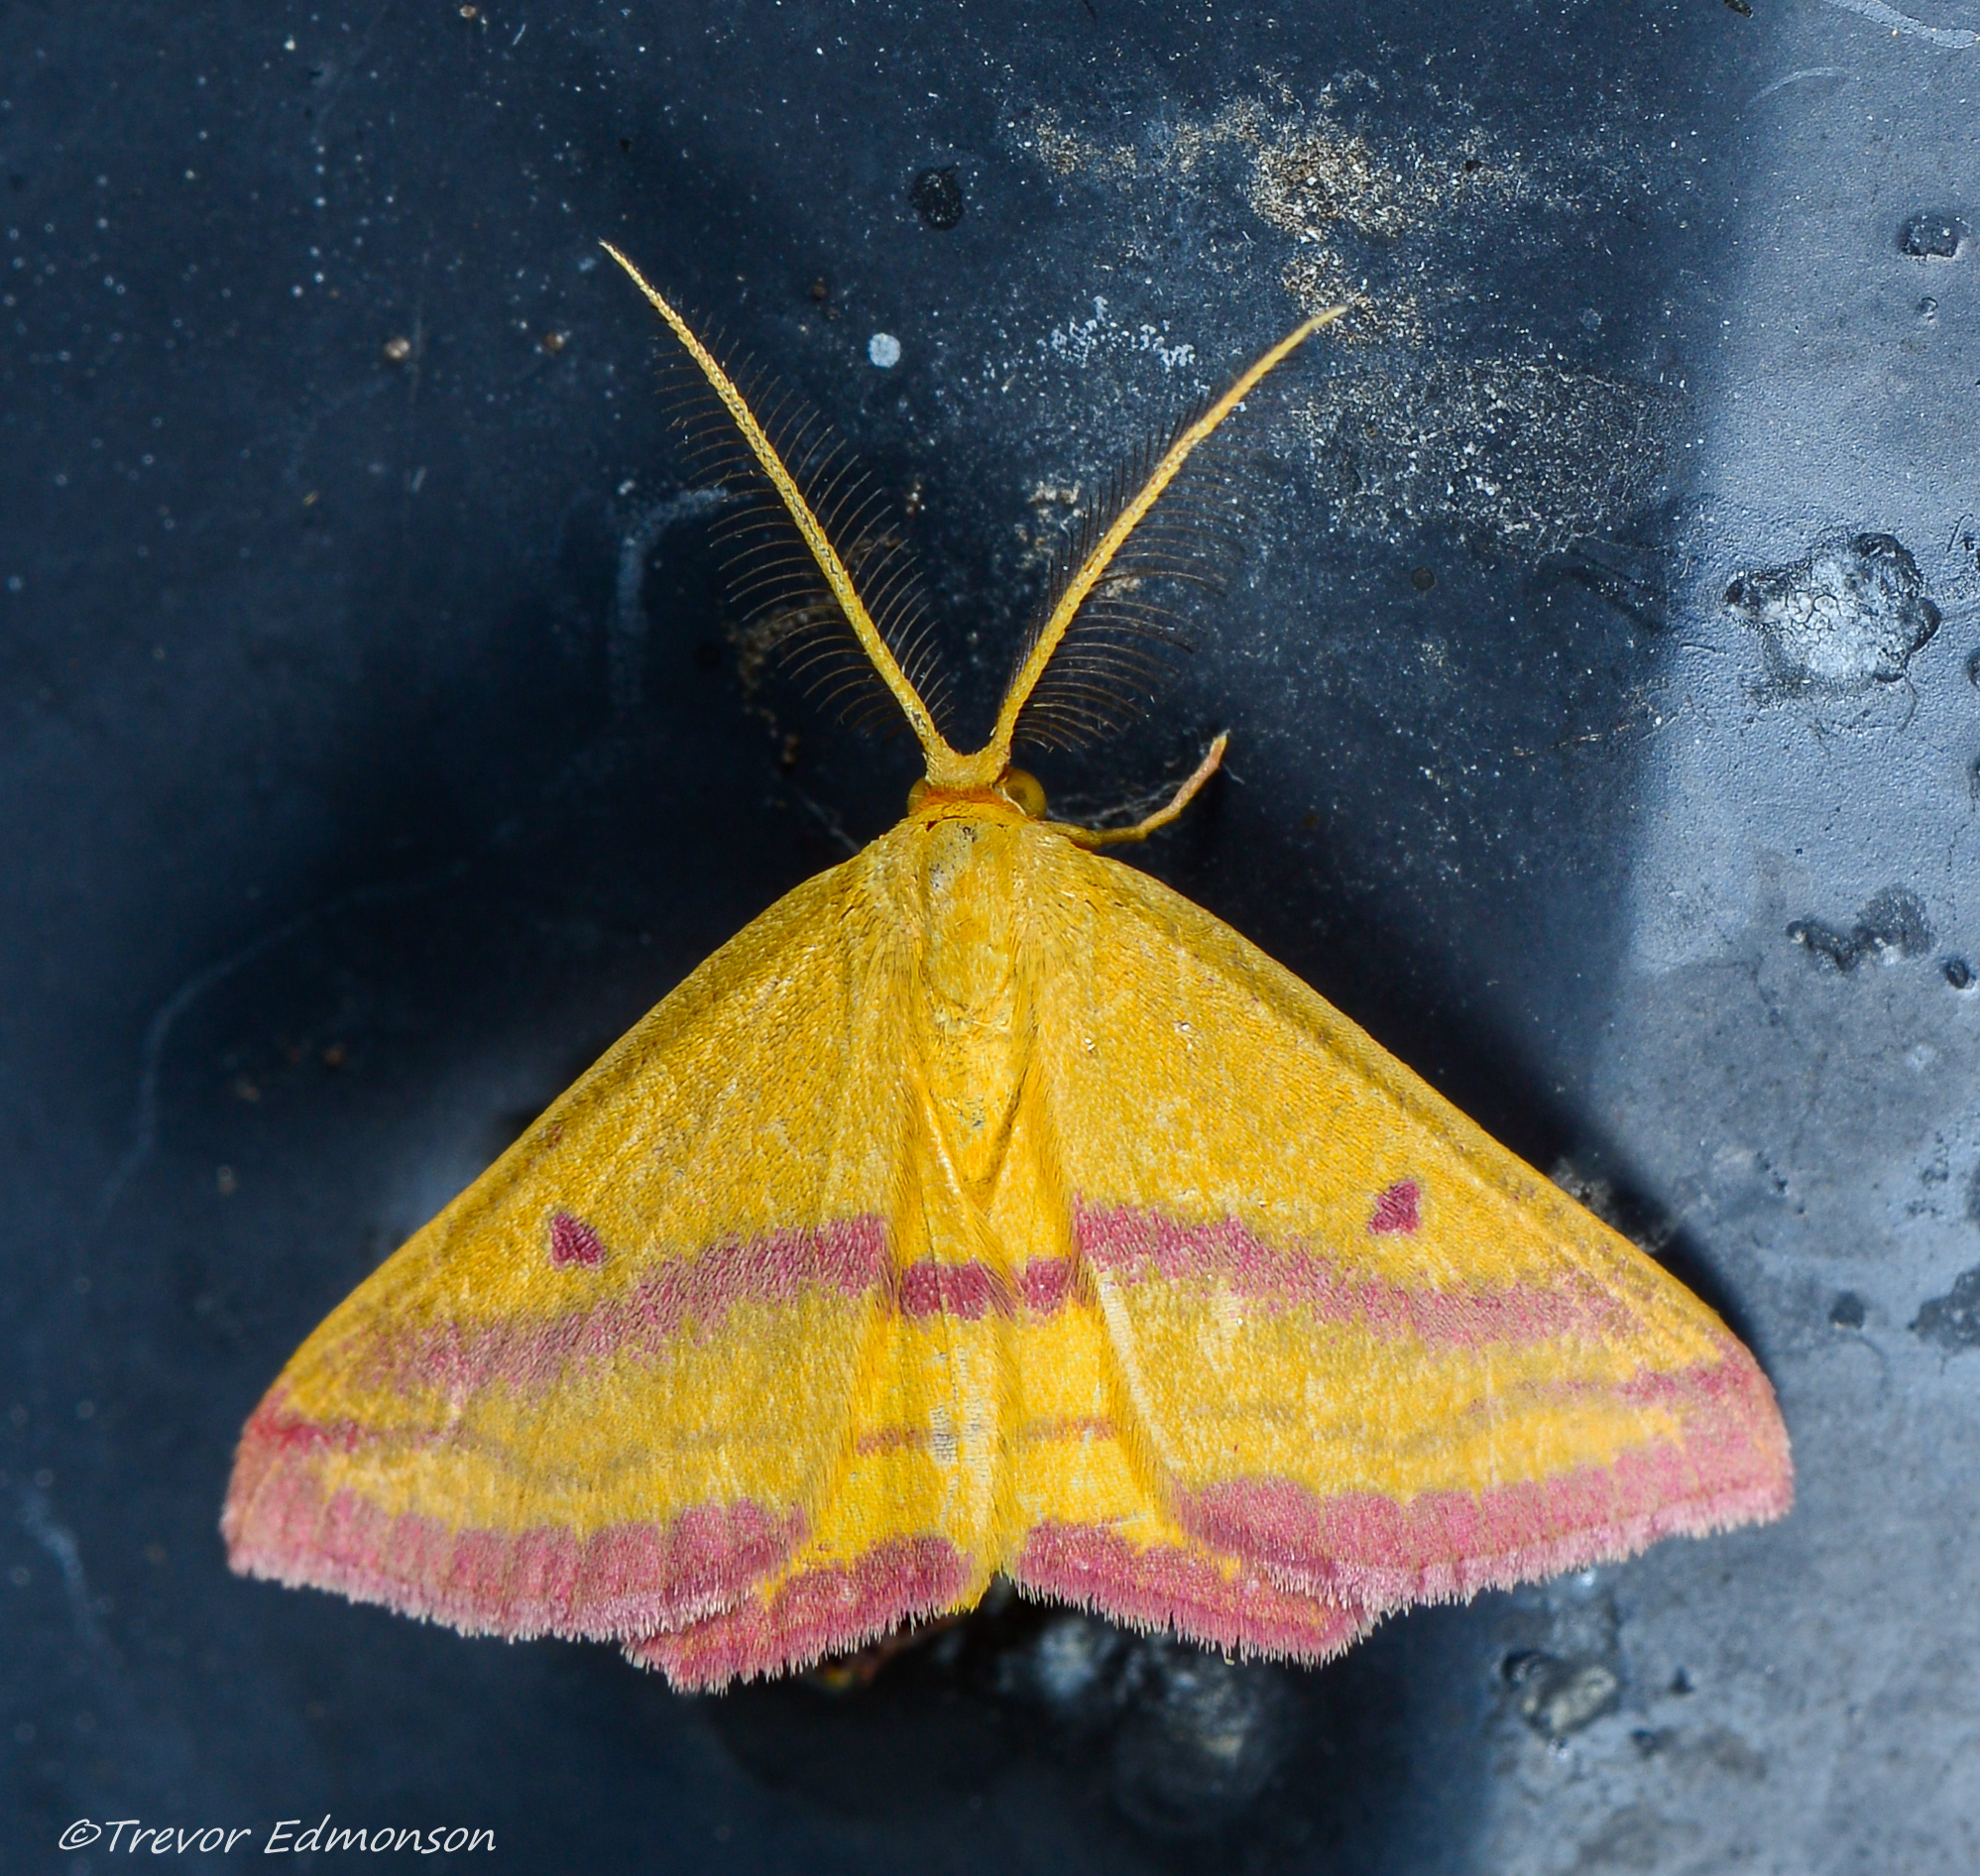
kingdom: Animalia
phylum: Arthropoda
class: Insecta
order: Lepidoptera
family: Geometridae
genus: Haematopis
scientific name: Haematopis grataria
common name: Chickweed geometer
